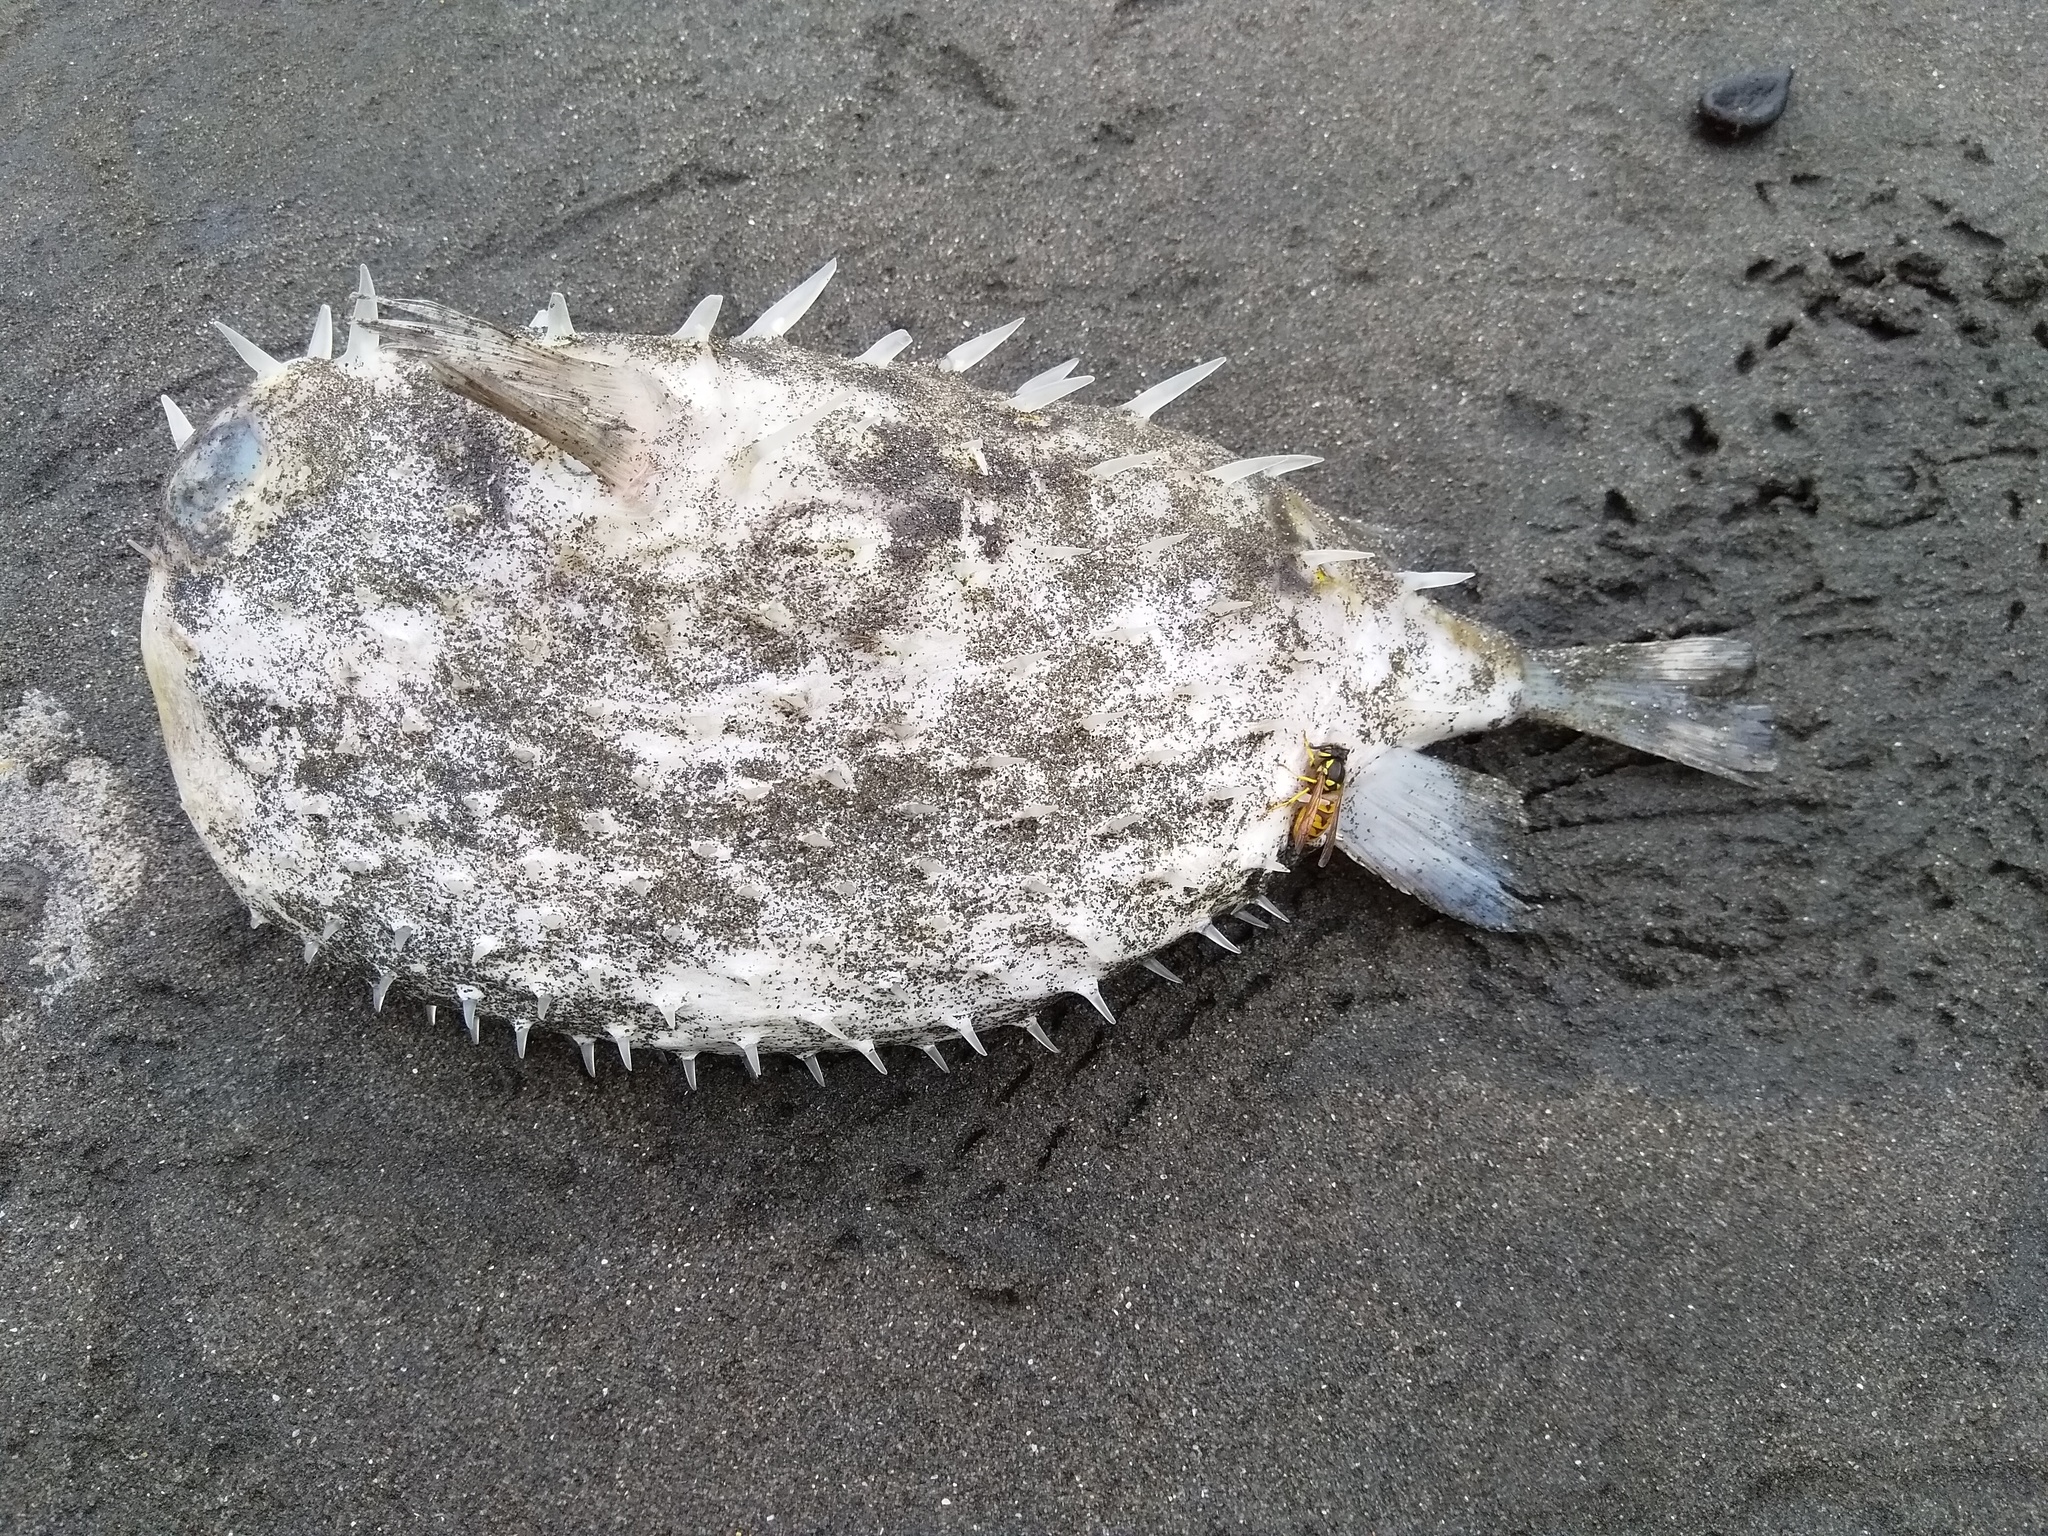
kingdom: Animalia
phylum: Chordata
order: Tetraodontiformes
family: Diodontidae
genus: Allomycterus
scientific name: Allomycterus pilatus
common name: No common name
